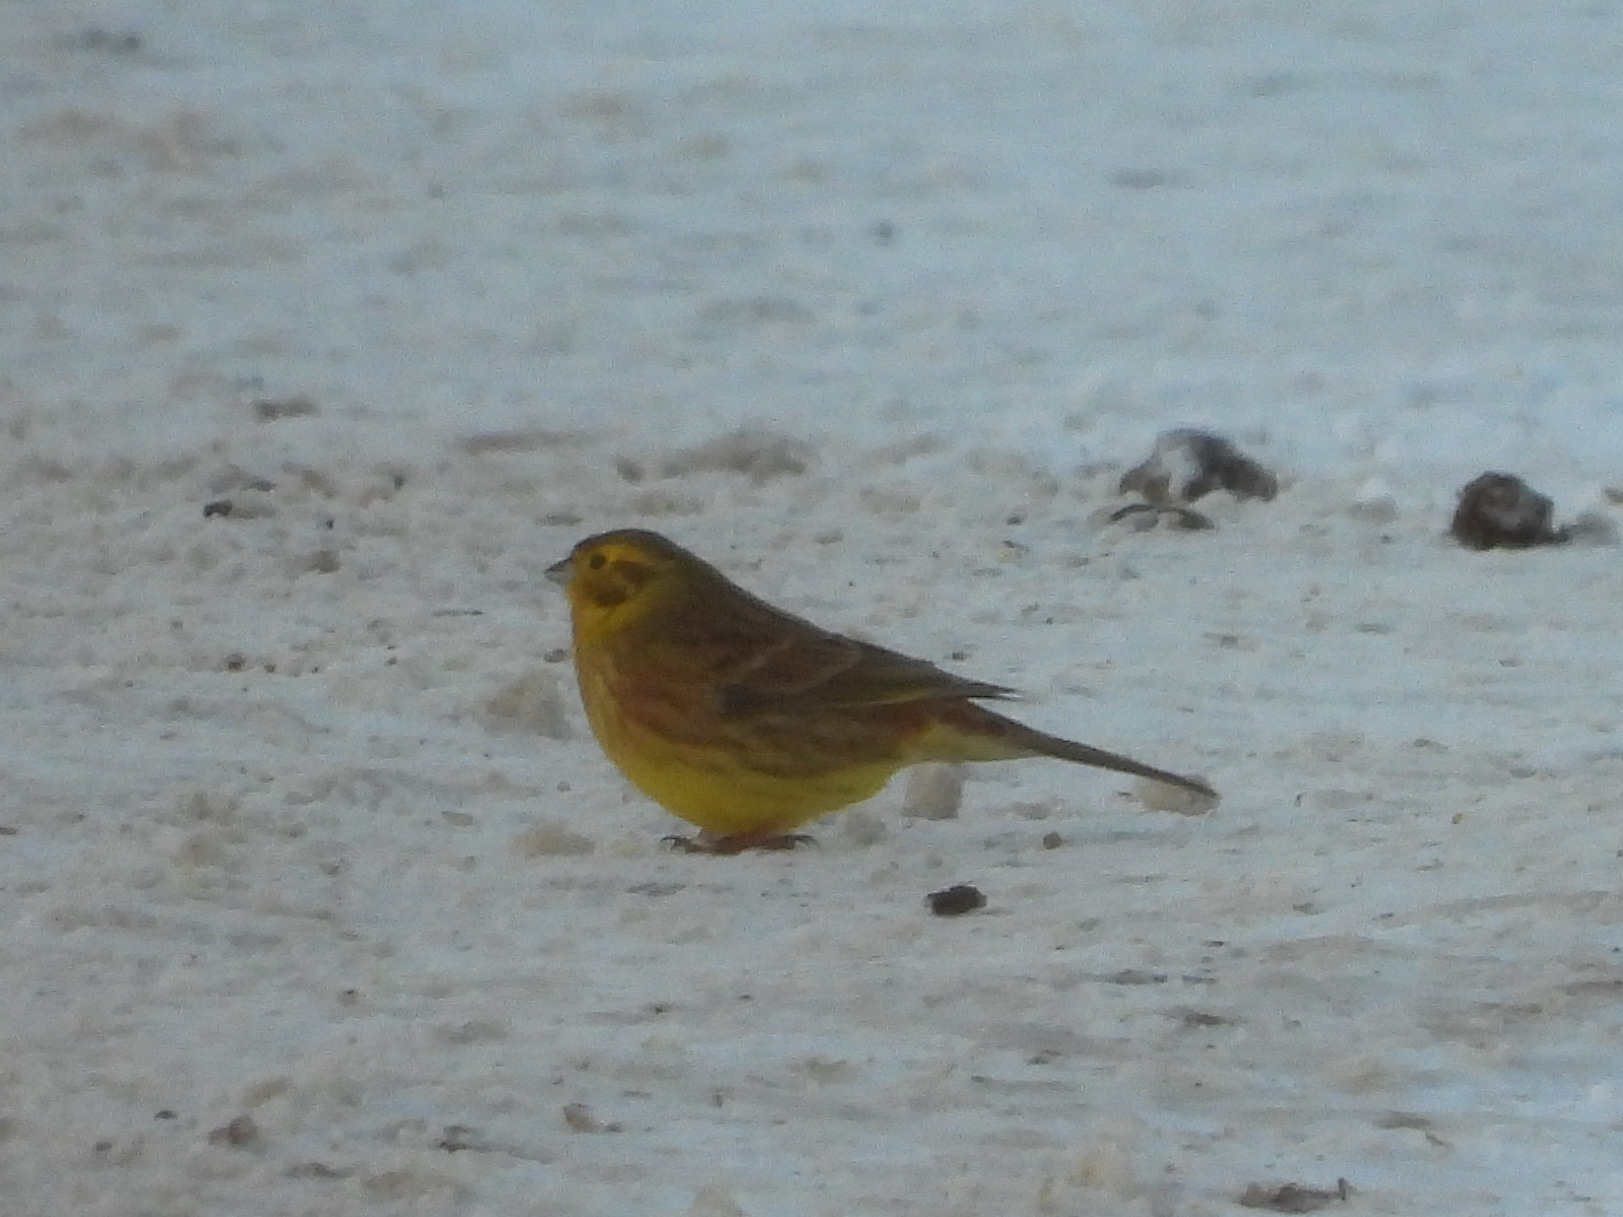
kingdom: Animalia
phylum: Chordata
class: Aves
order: Passeriformes
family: Emberizidae
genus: Emberiza
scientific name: Emberiza citrinella
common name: Yellowhammer
